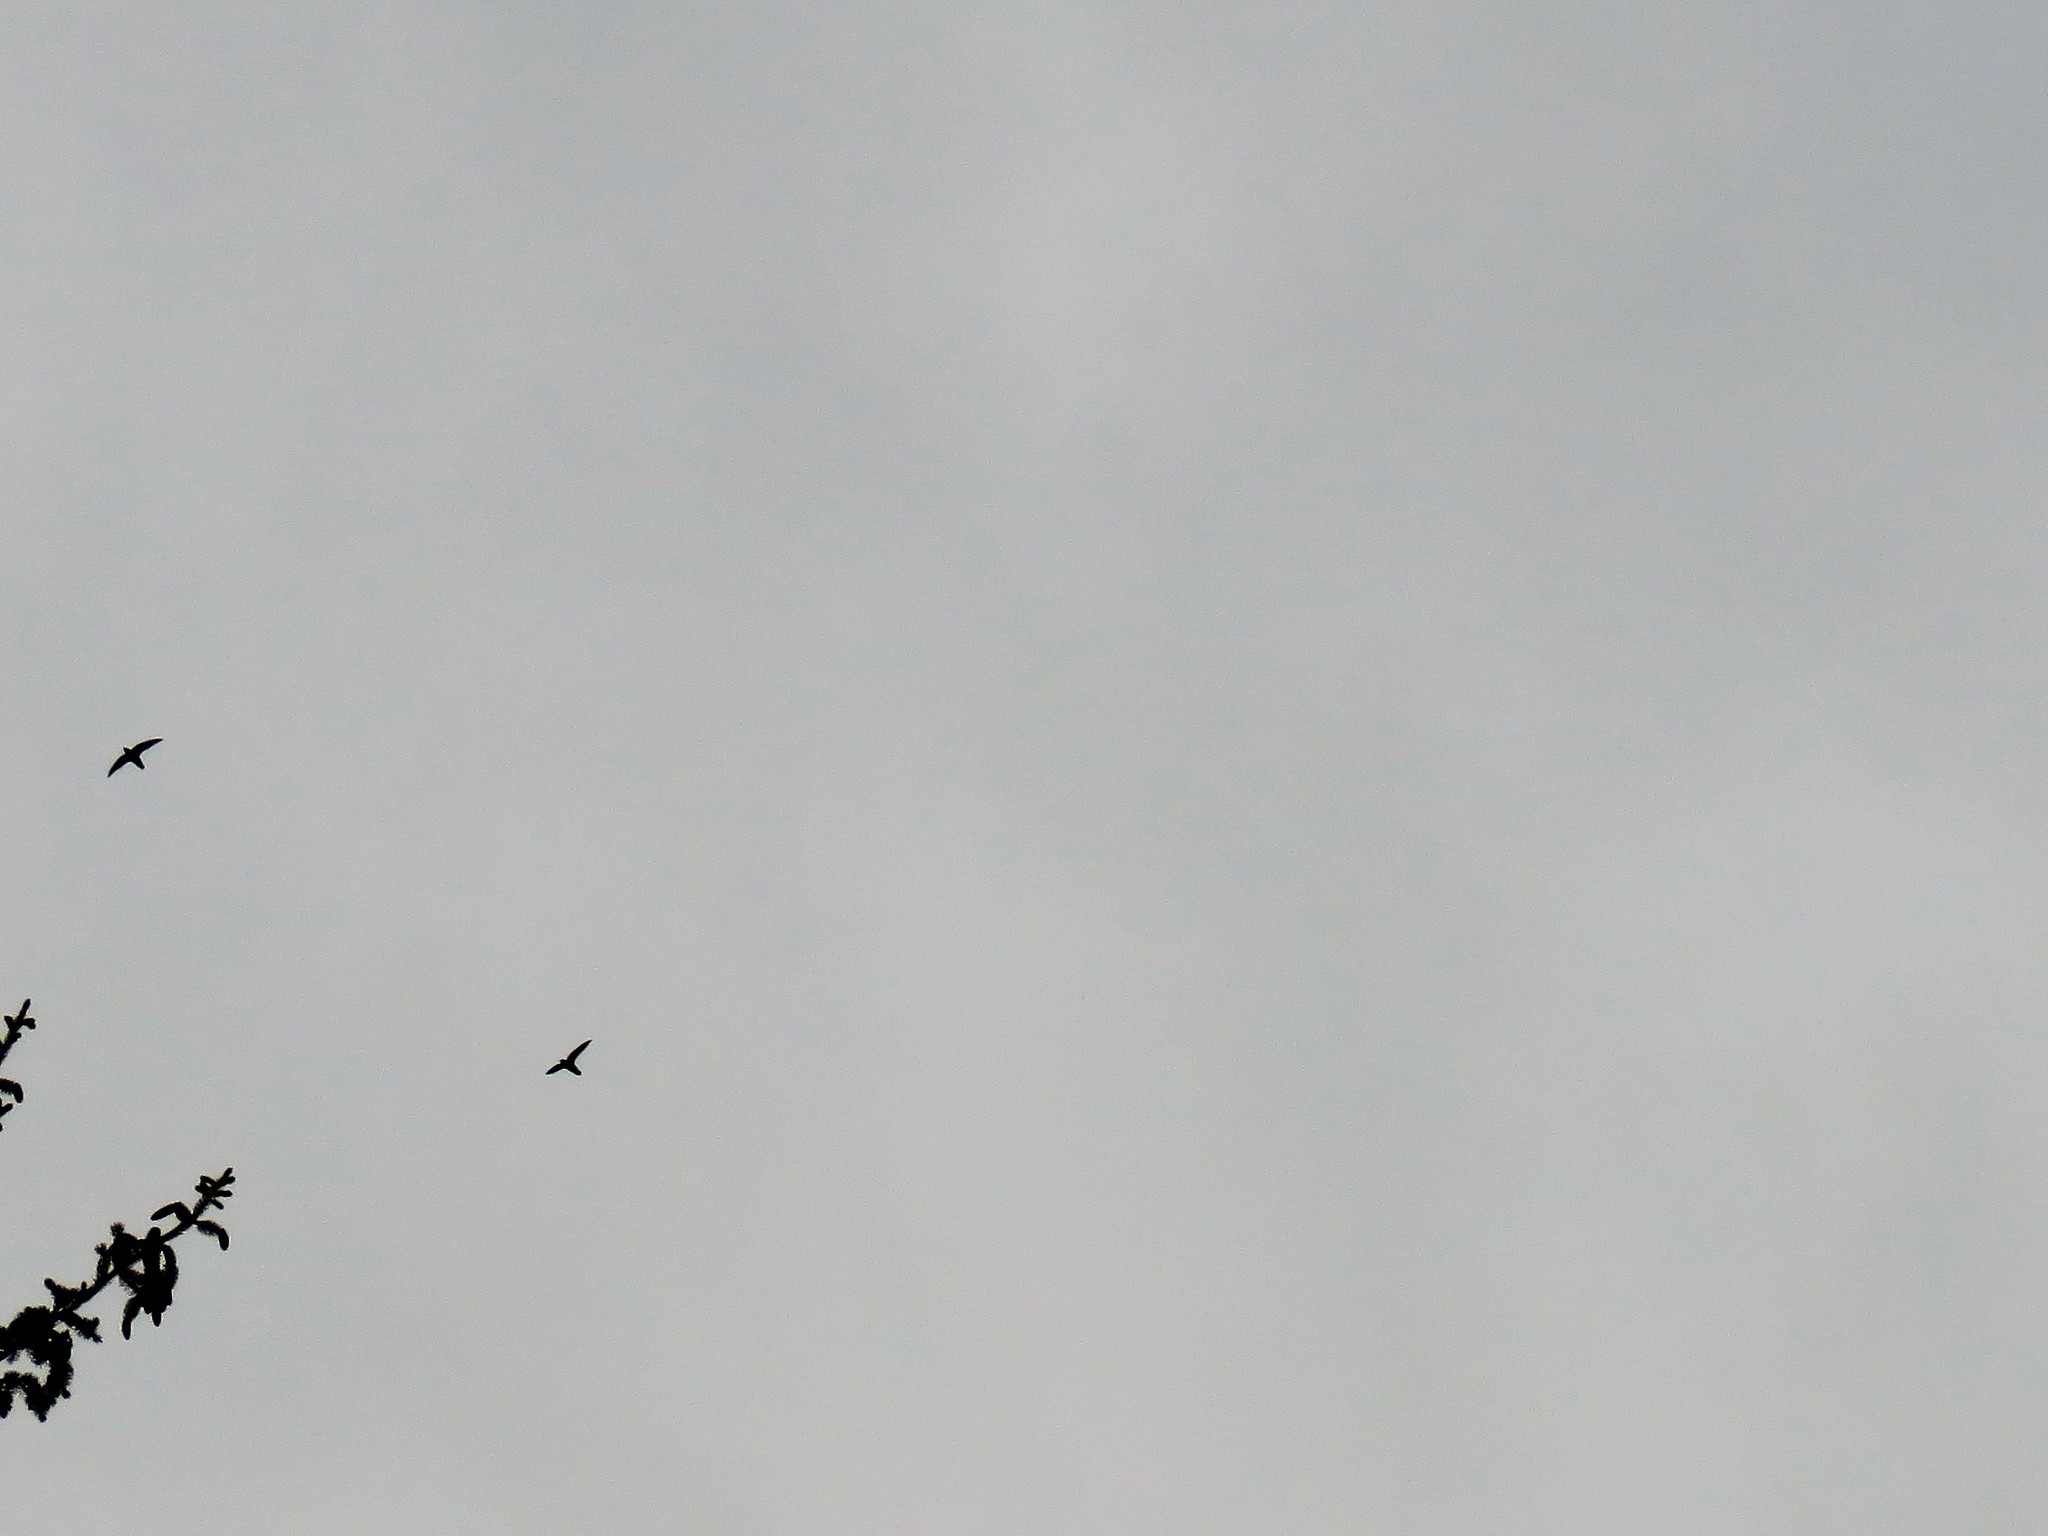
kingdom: Animalia
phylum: Chordata
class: Aves
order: Apodiformes
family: Apodidae
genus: Chaetura
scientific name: Chaetura pelagica
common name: Chimney swift
